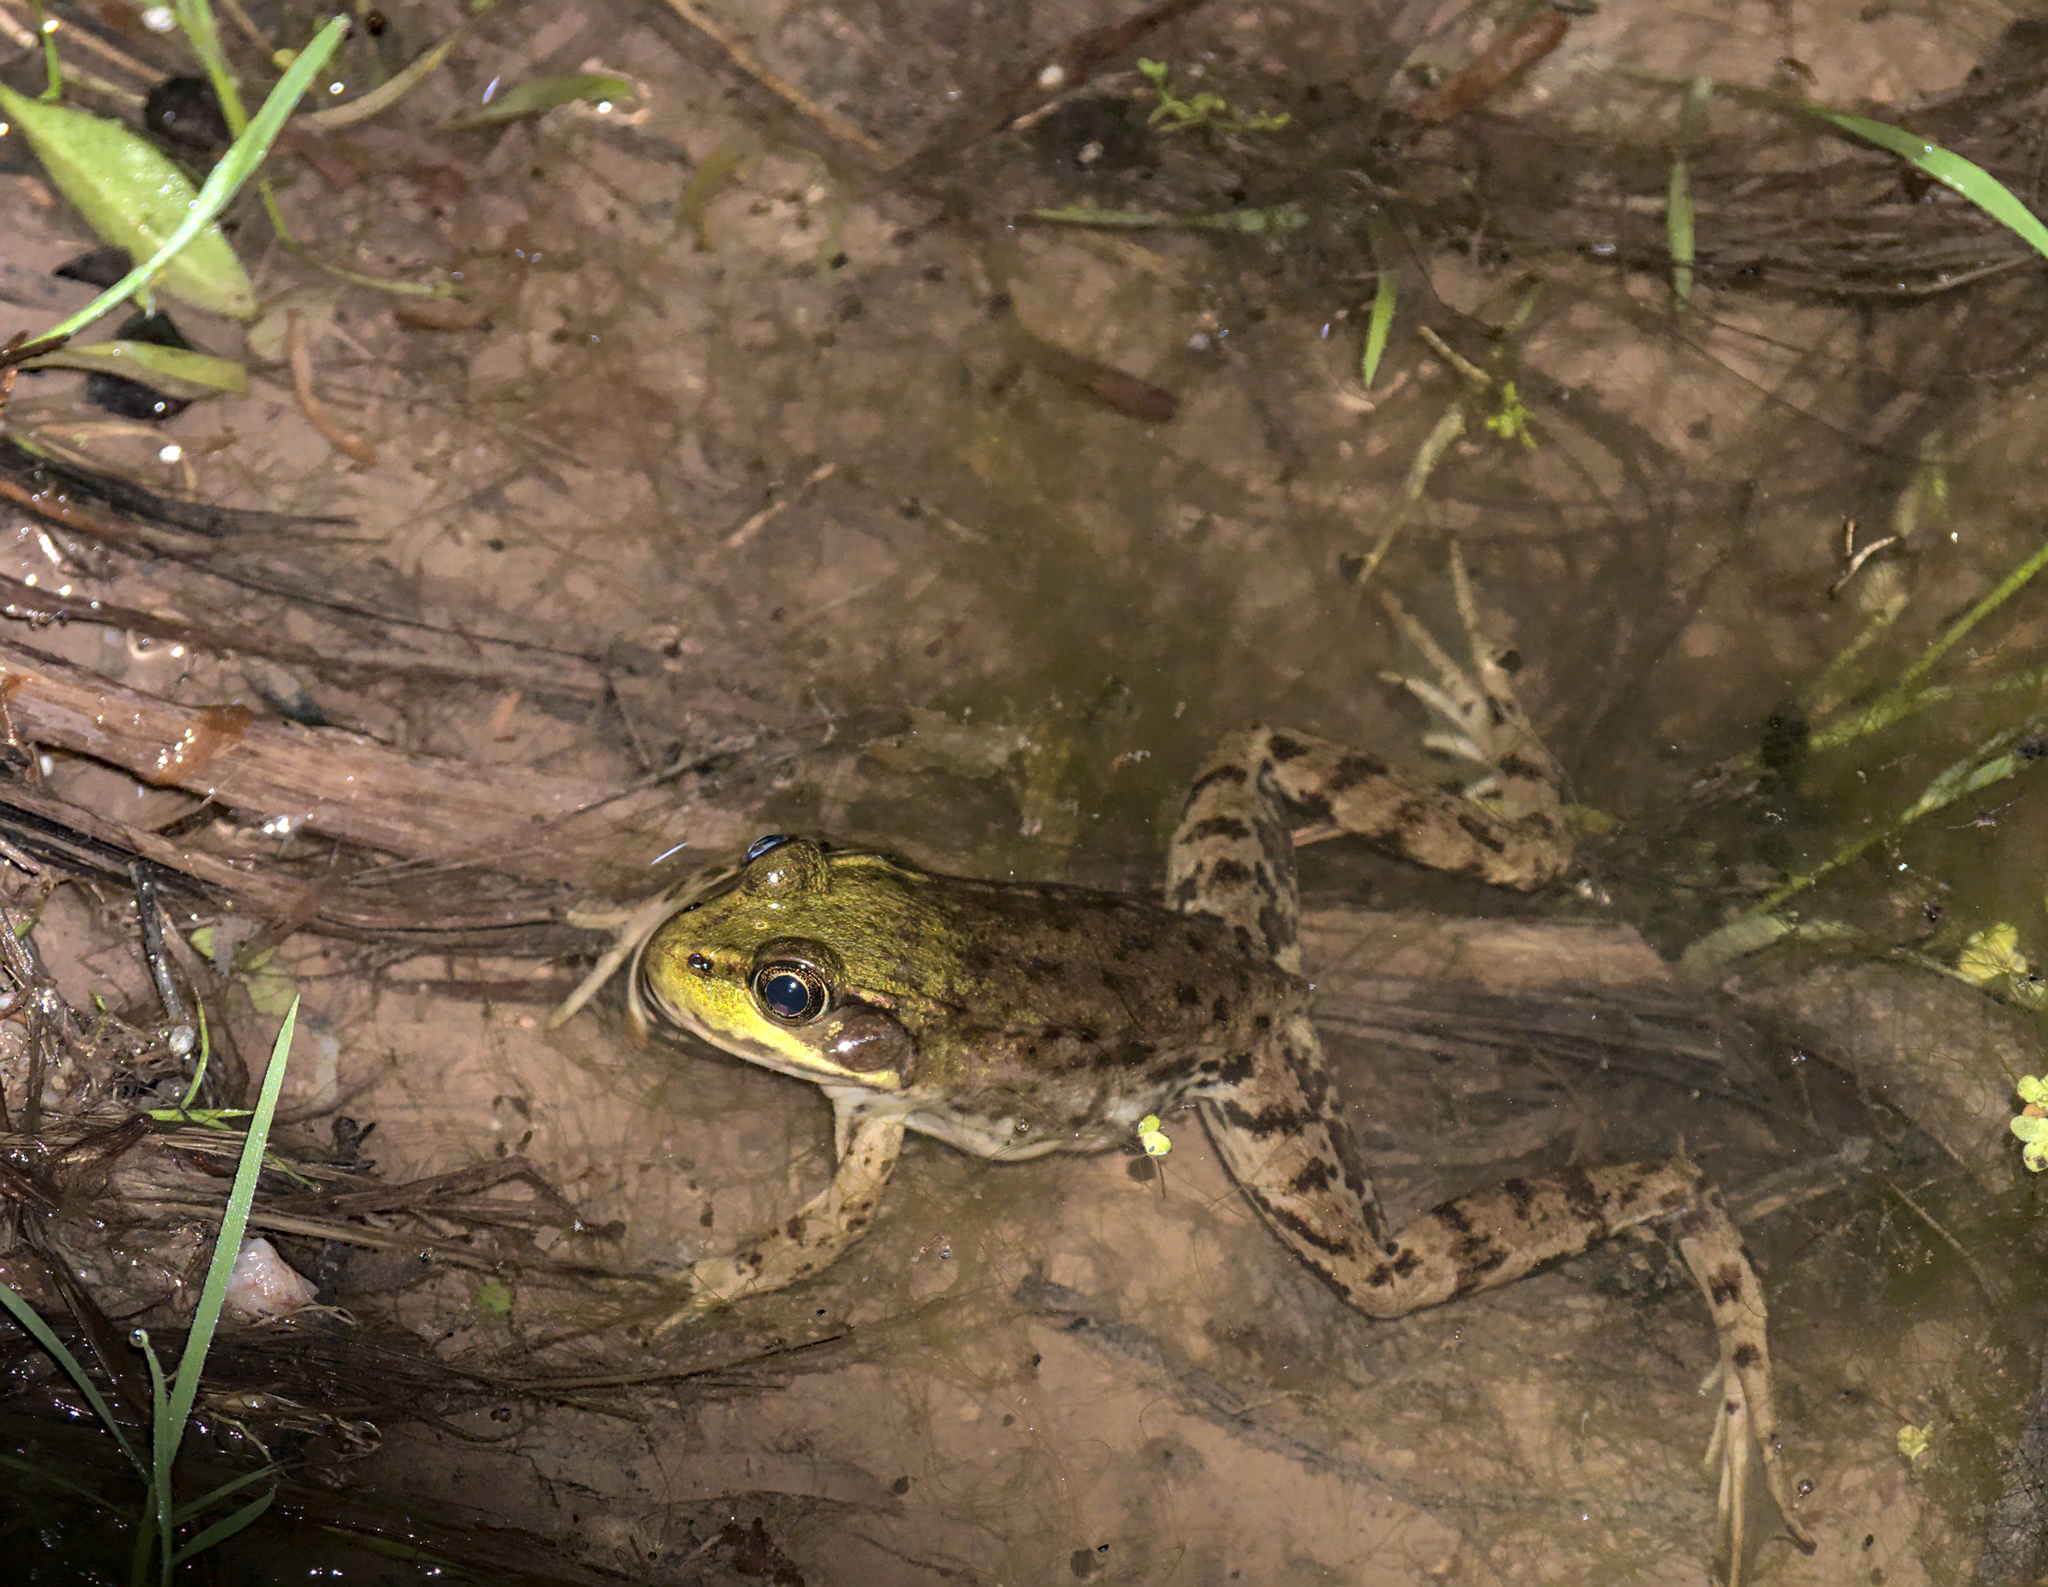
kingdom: Animalia
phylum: Chordata
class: Amphibia
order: Anura
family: Ranidae
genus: Lithobates
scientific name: Lithobates clamitans
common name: Green frog
